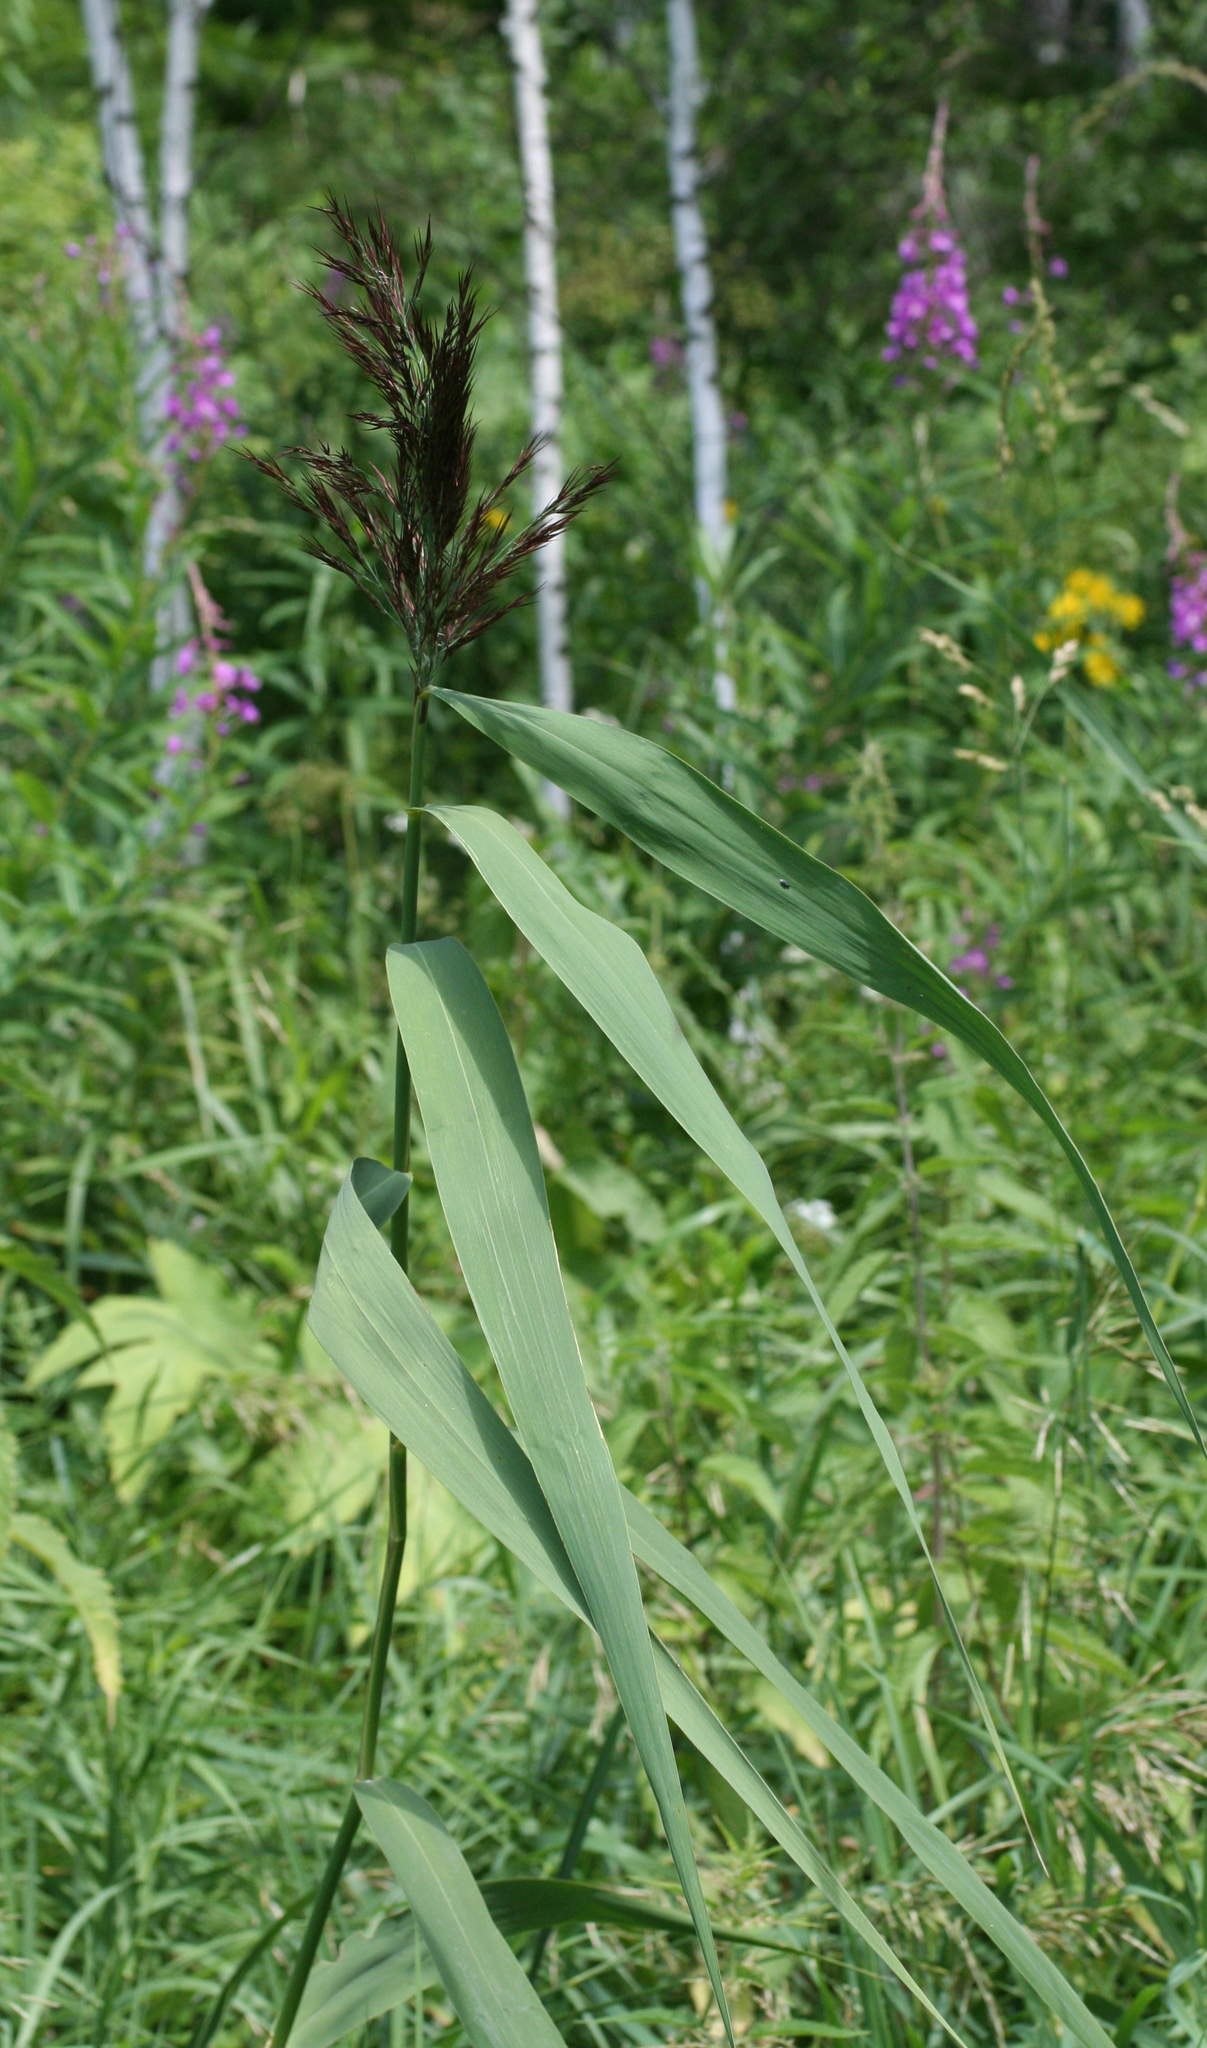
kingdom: Plantae
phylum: Tracheophyta
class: Liliopsida
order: Poales
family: Poaceae
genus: Phragmites
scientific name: Phragmites australis
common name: Common reed
